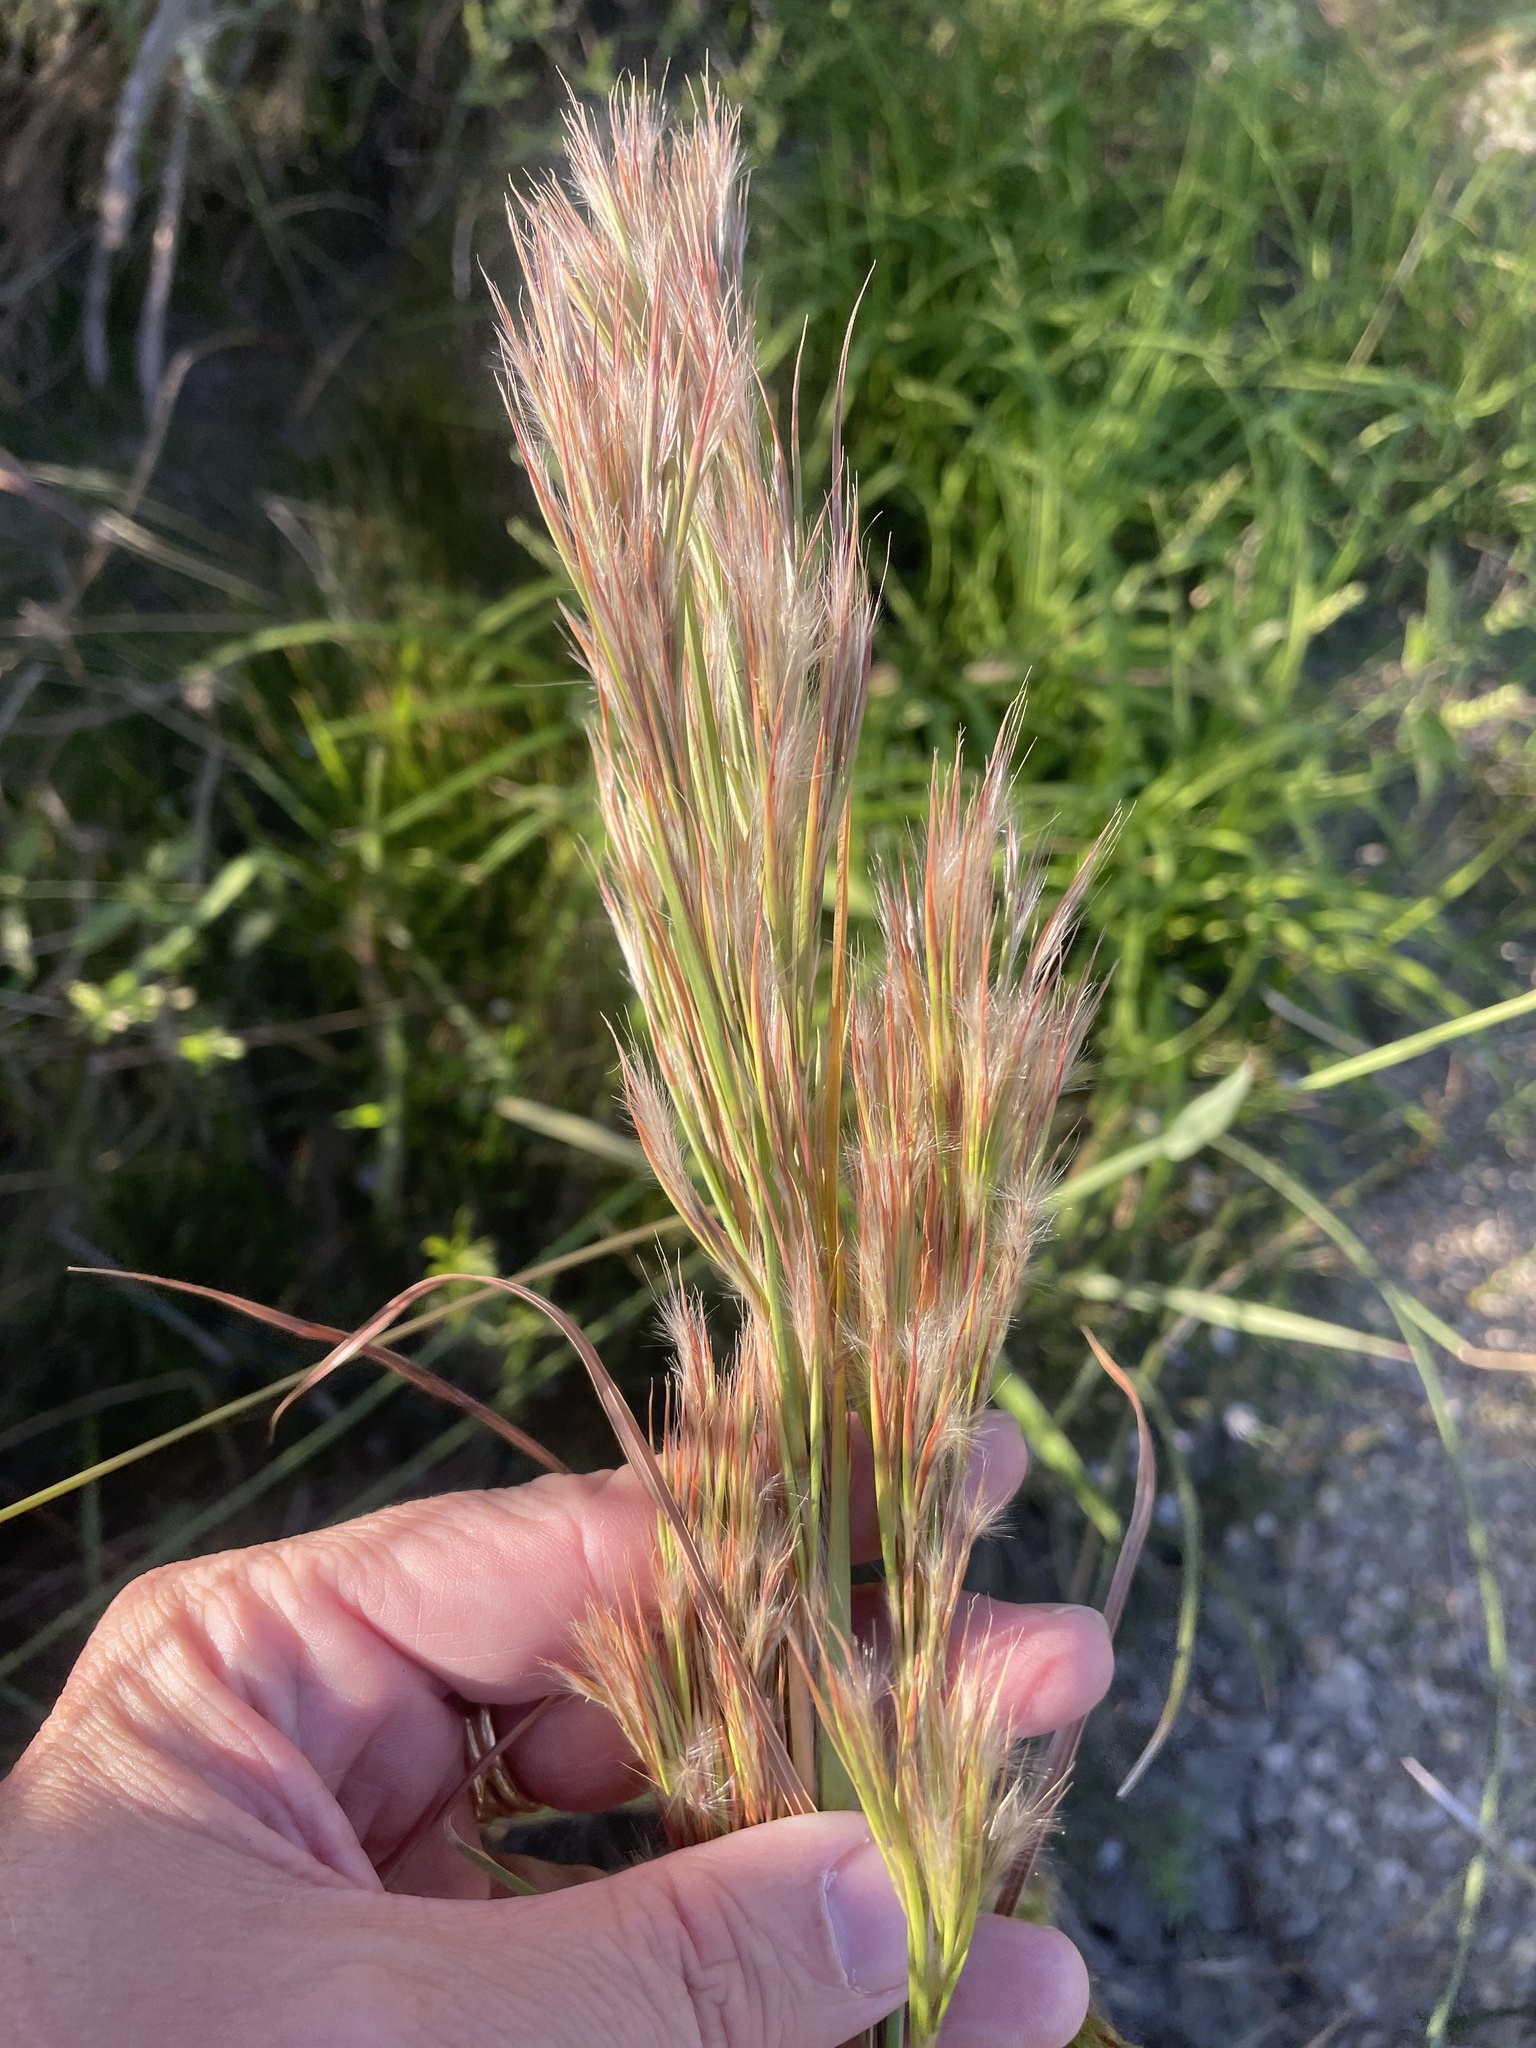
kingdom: Plantae
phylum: Tracheophyta
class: Liliopsida
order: Poales
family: Poaceae
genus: Andropogon
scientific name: Andropogon tenuispatheus
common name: Bushy bluestem
